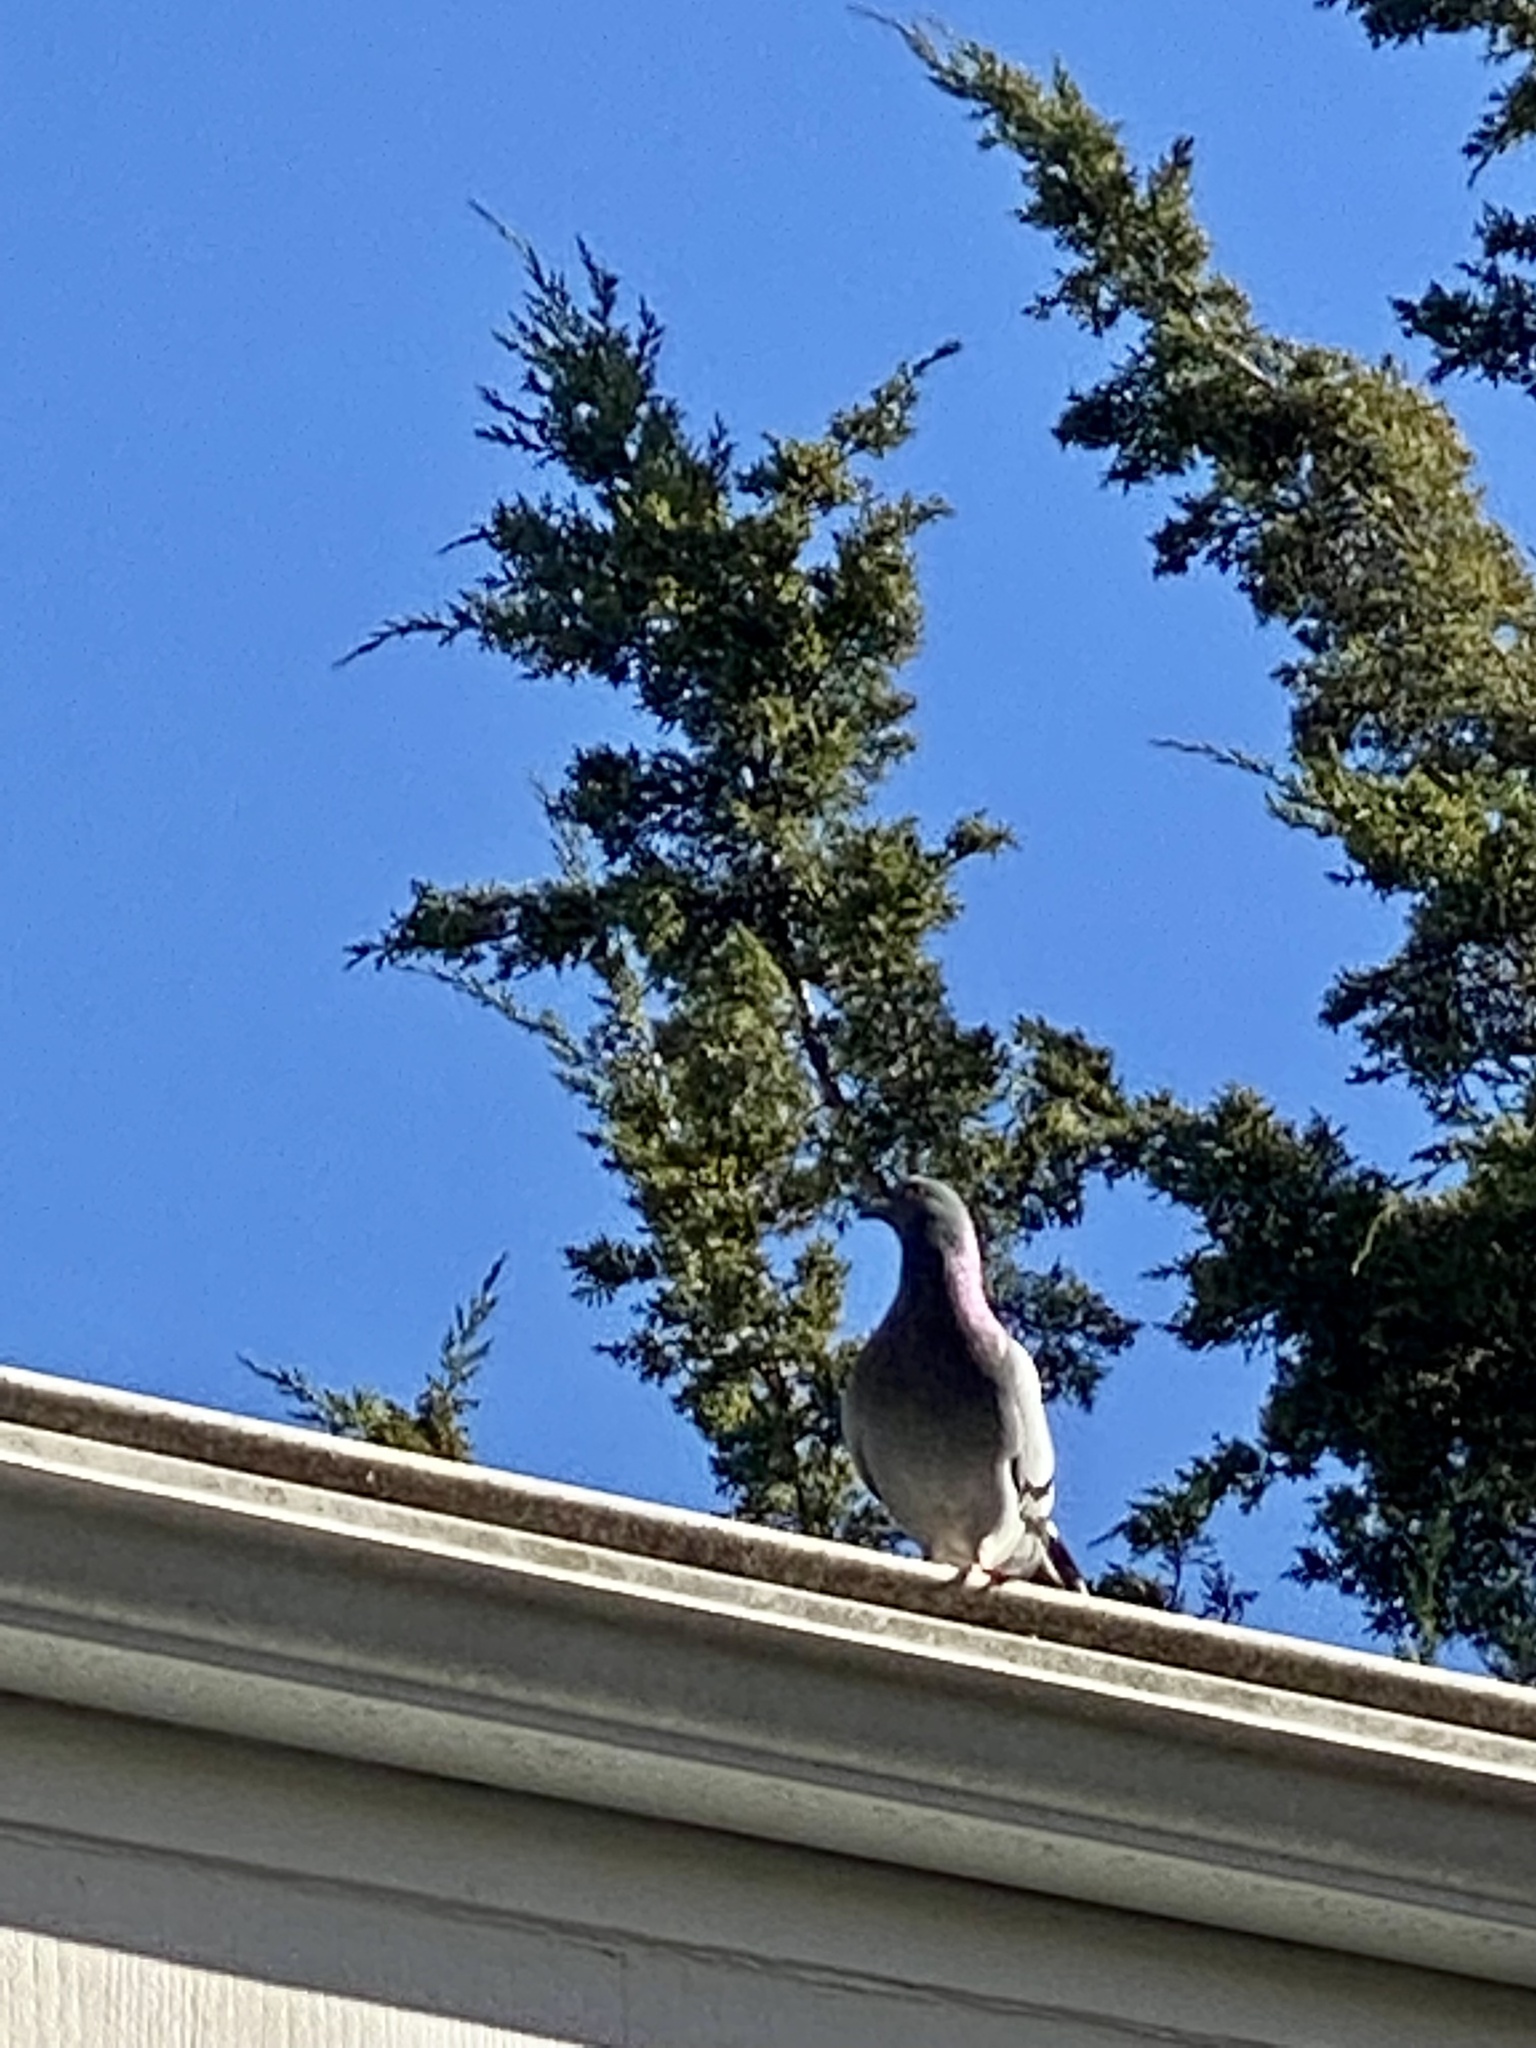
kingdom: Animalia
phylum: Chordata
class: Aves
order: Columbiformes
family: Columbidae
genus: Columba
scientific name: Columba livia
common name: Rock pigeon
